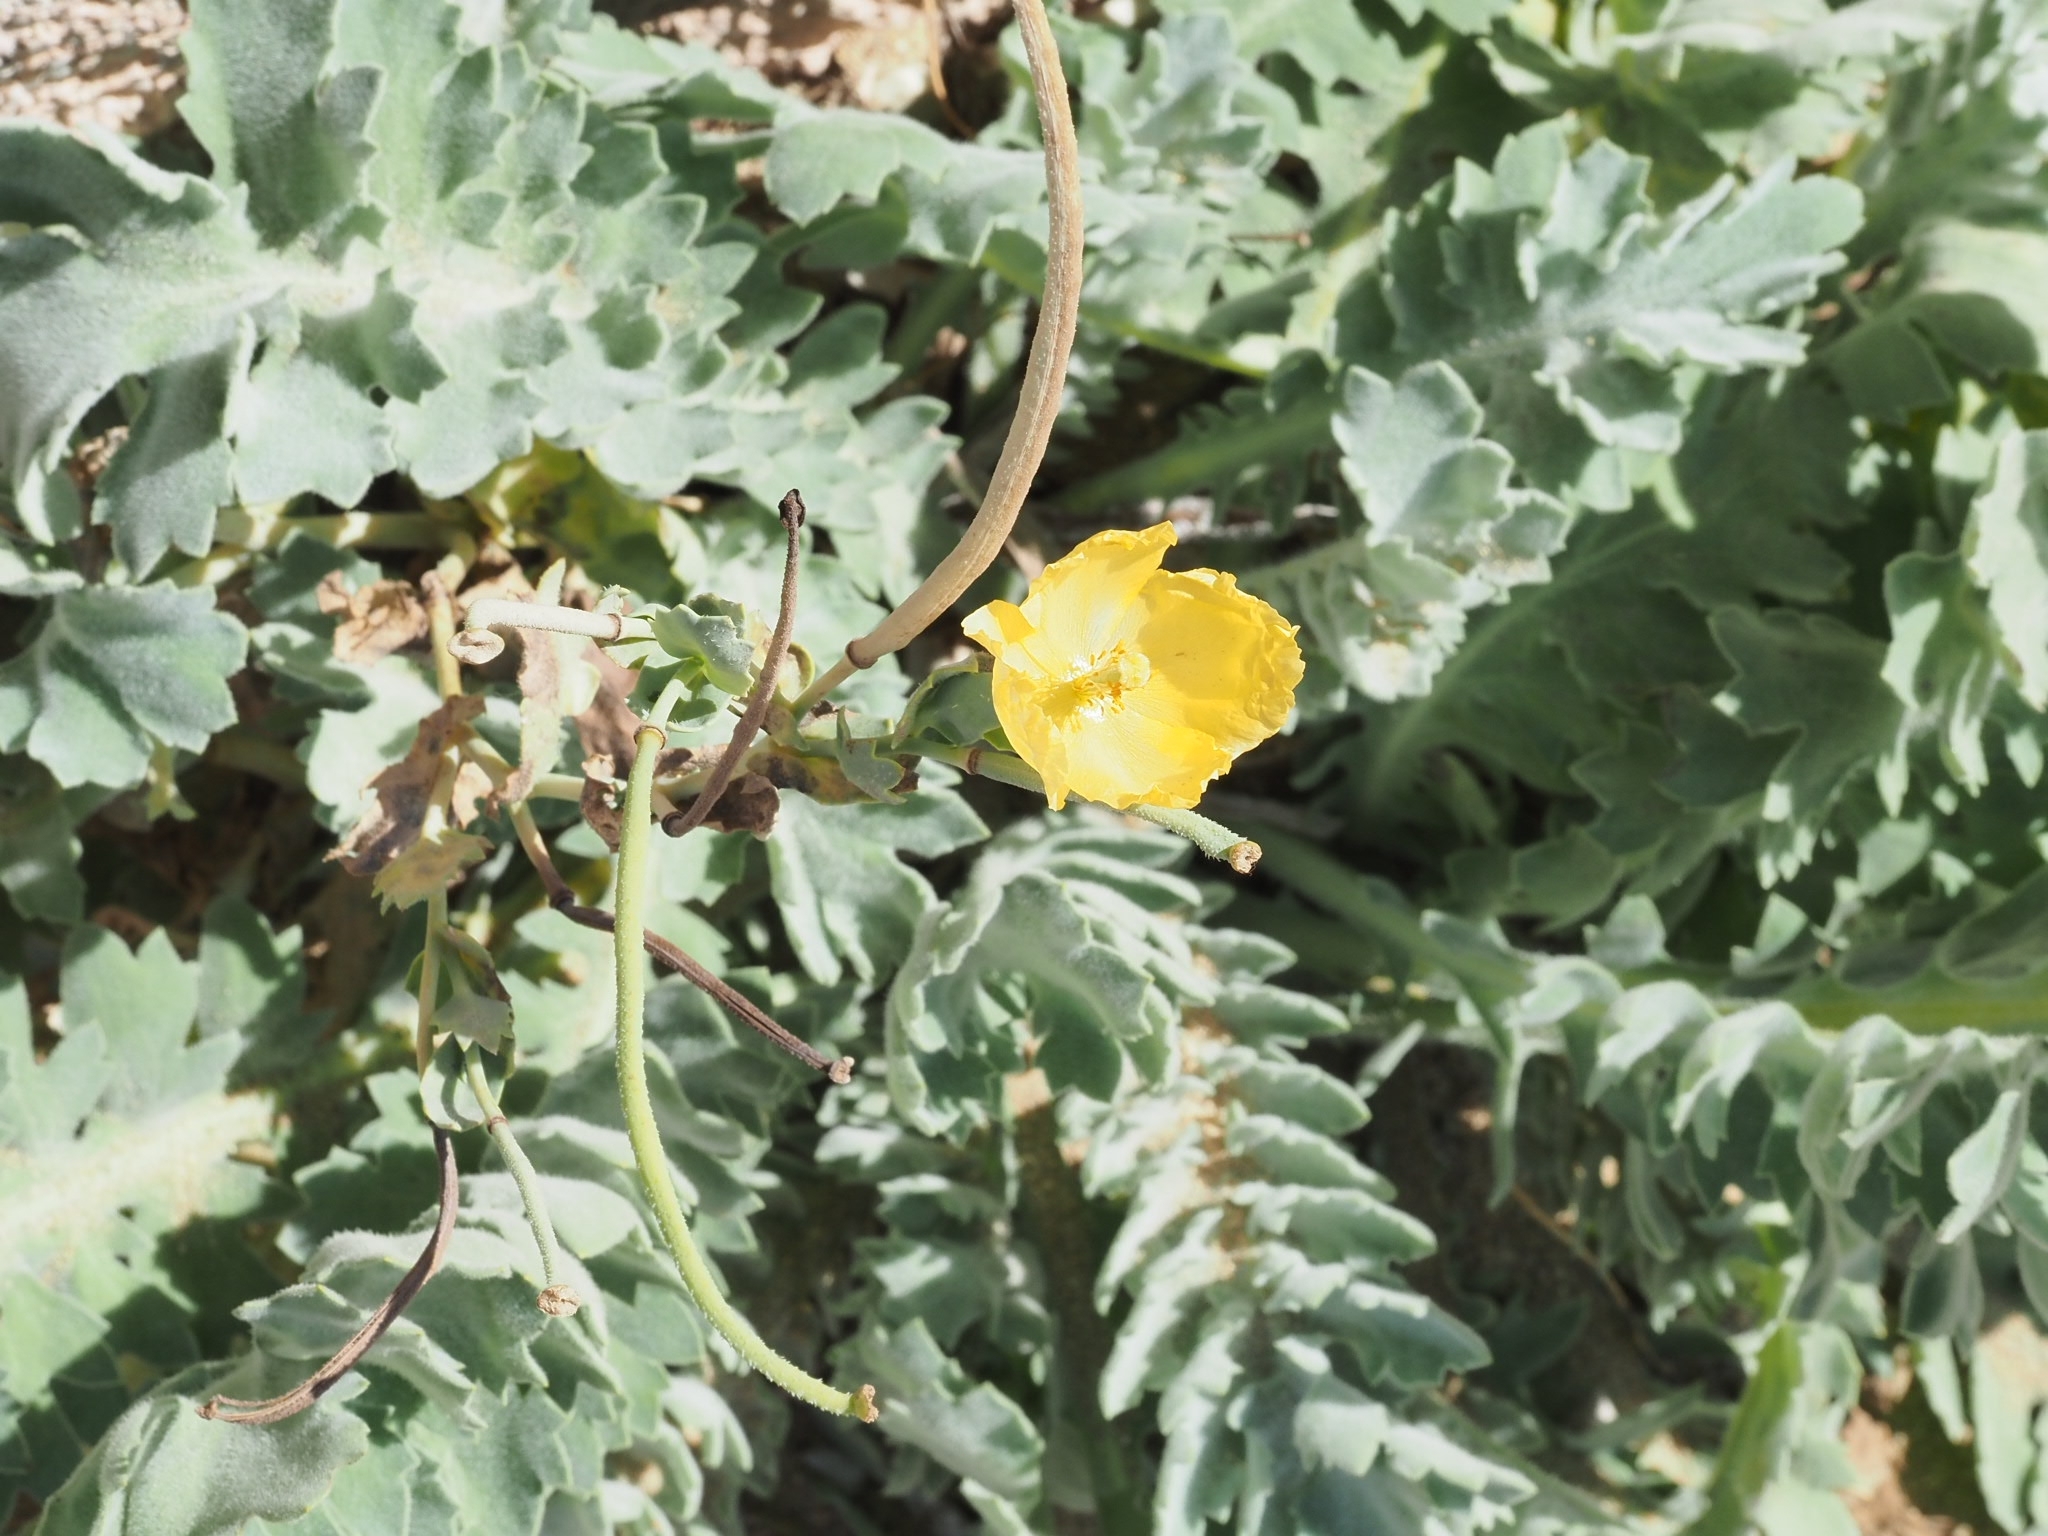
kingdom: Plantae
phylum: Tracheophyta
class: Magnoliopsida
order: Ranunculales
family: Papaveraceae
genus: Glaucium
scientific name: Glaucium flavum
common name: Yellow horned-poppy
